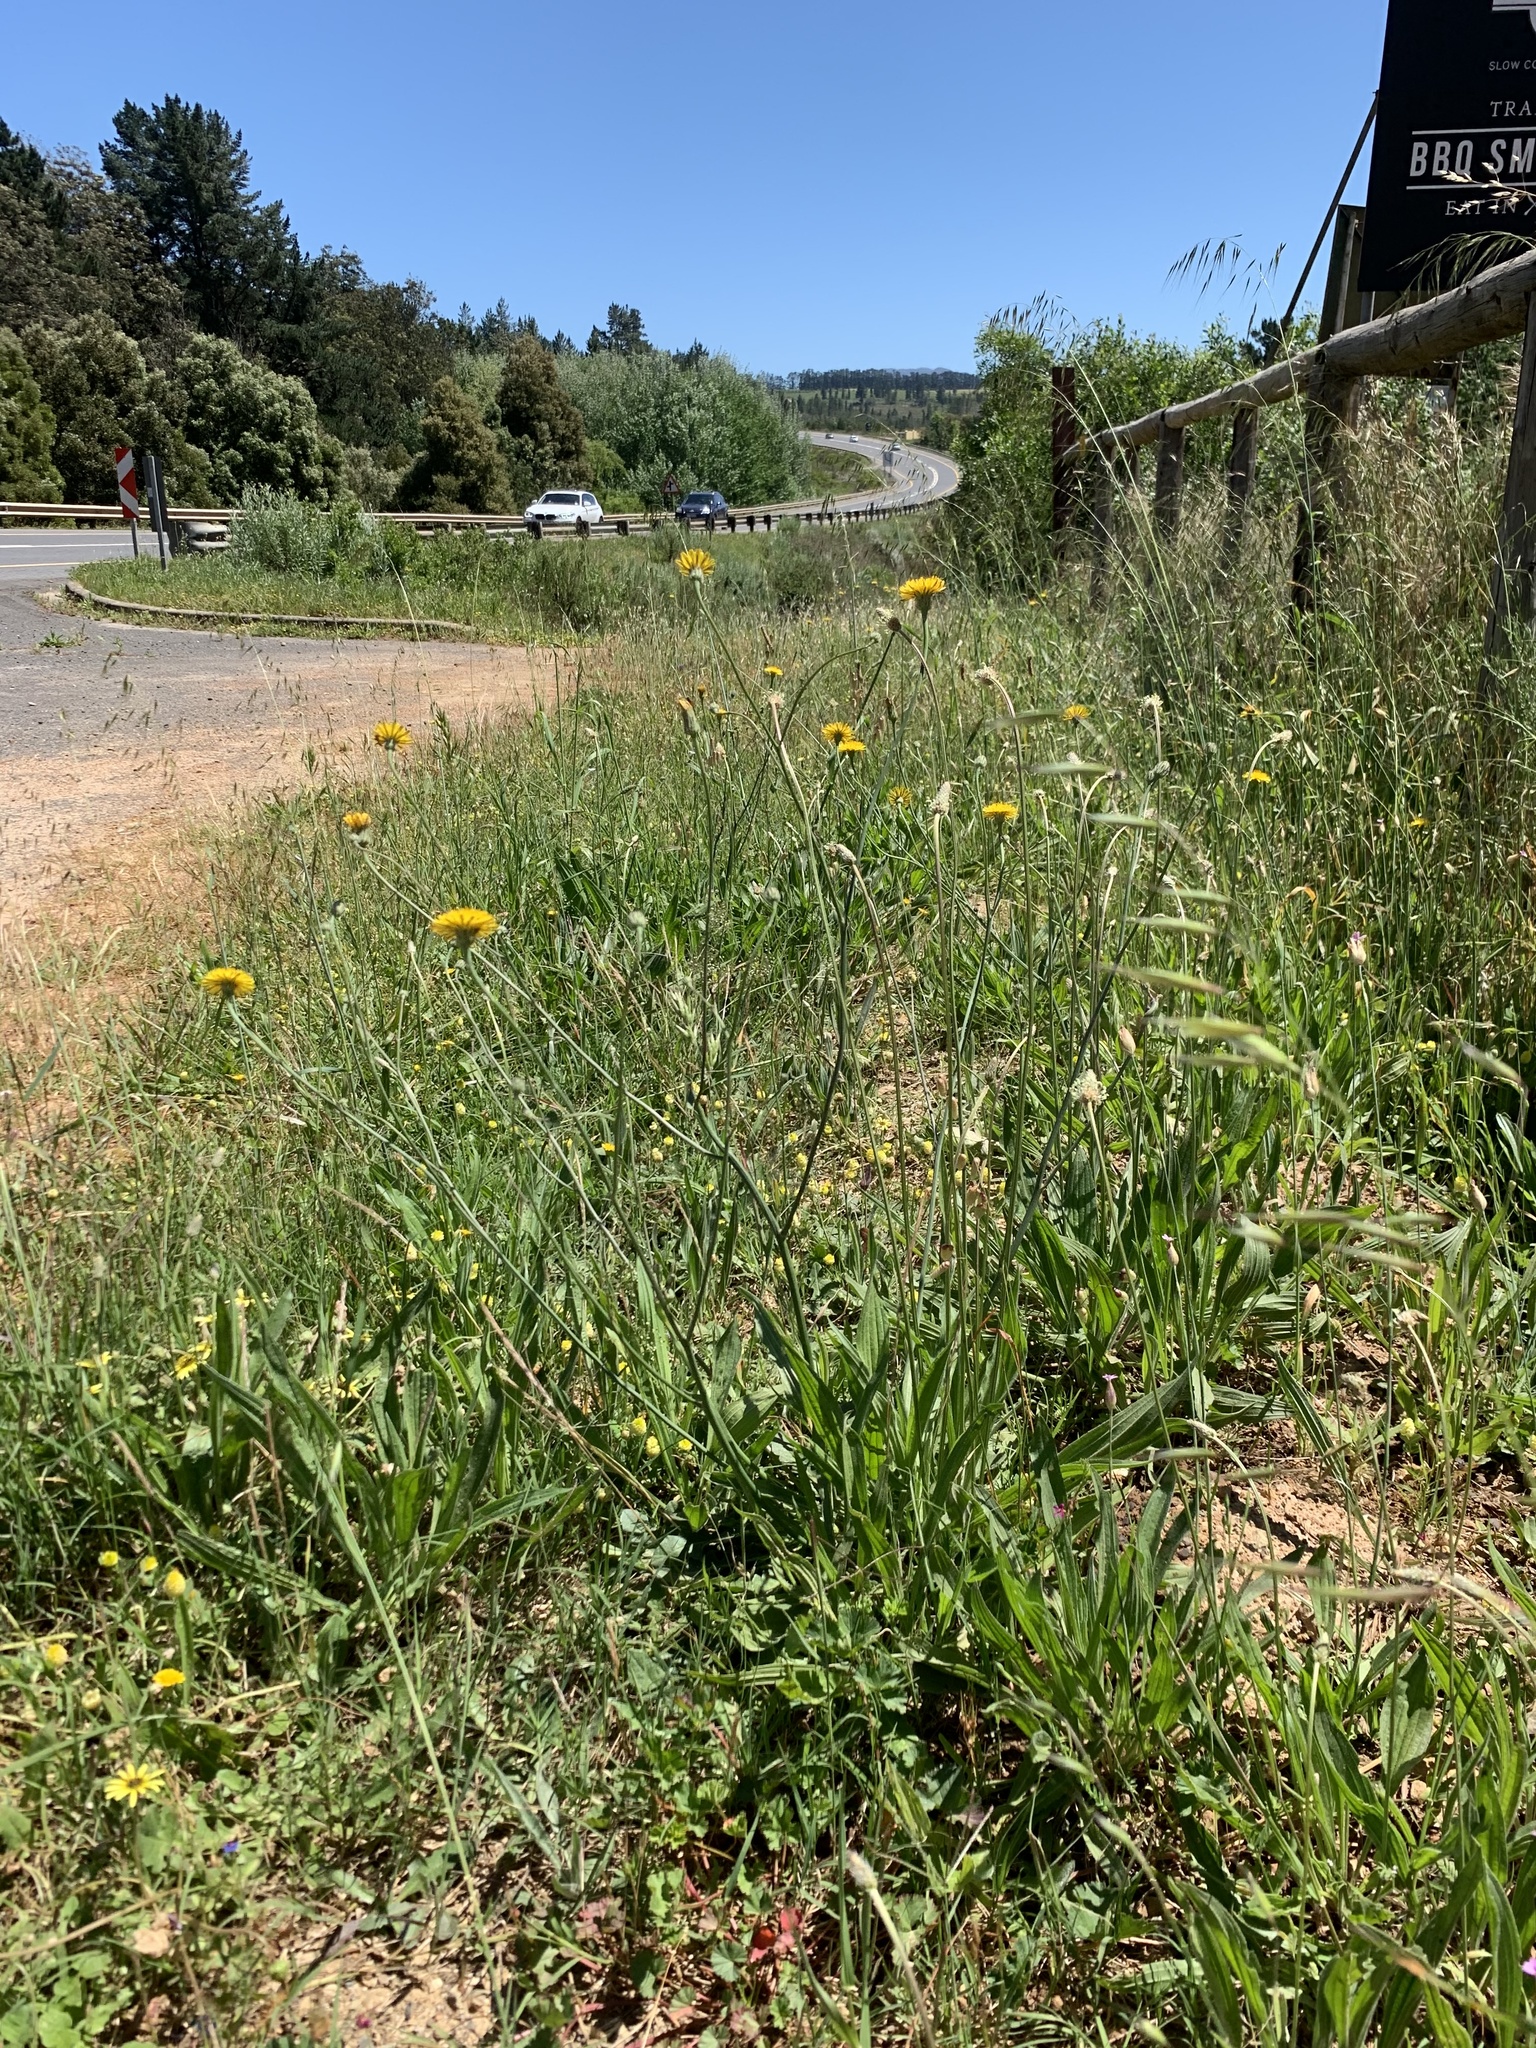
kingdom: Plantae
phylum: Tracheophyta
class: Magnoliopsida
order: Asterales
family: Asteraceae
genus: Hypochaeris
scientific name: Hypochaeris radicata
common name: Flatweed
